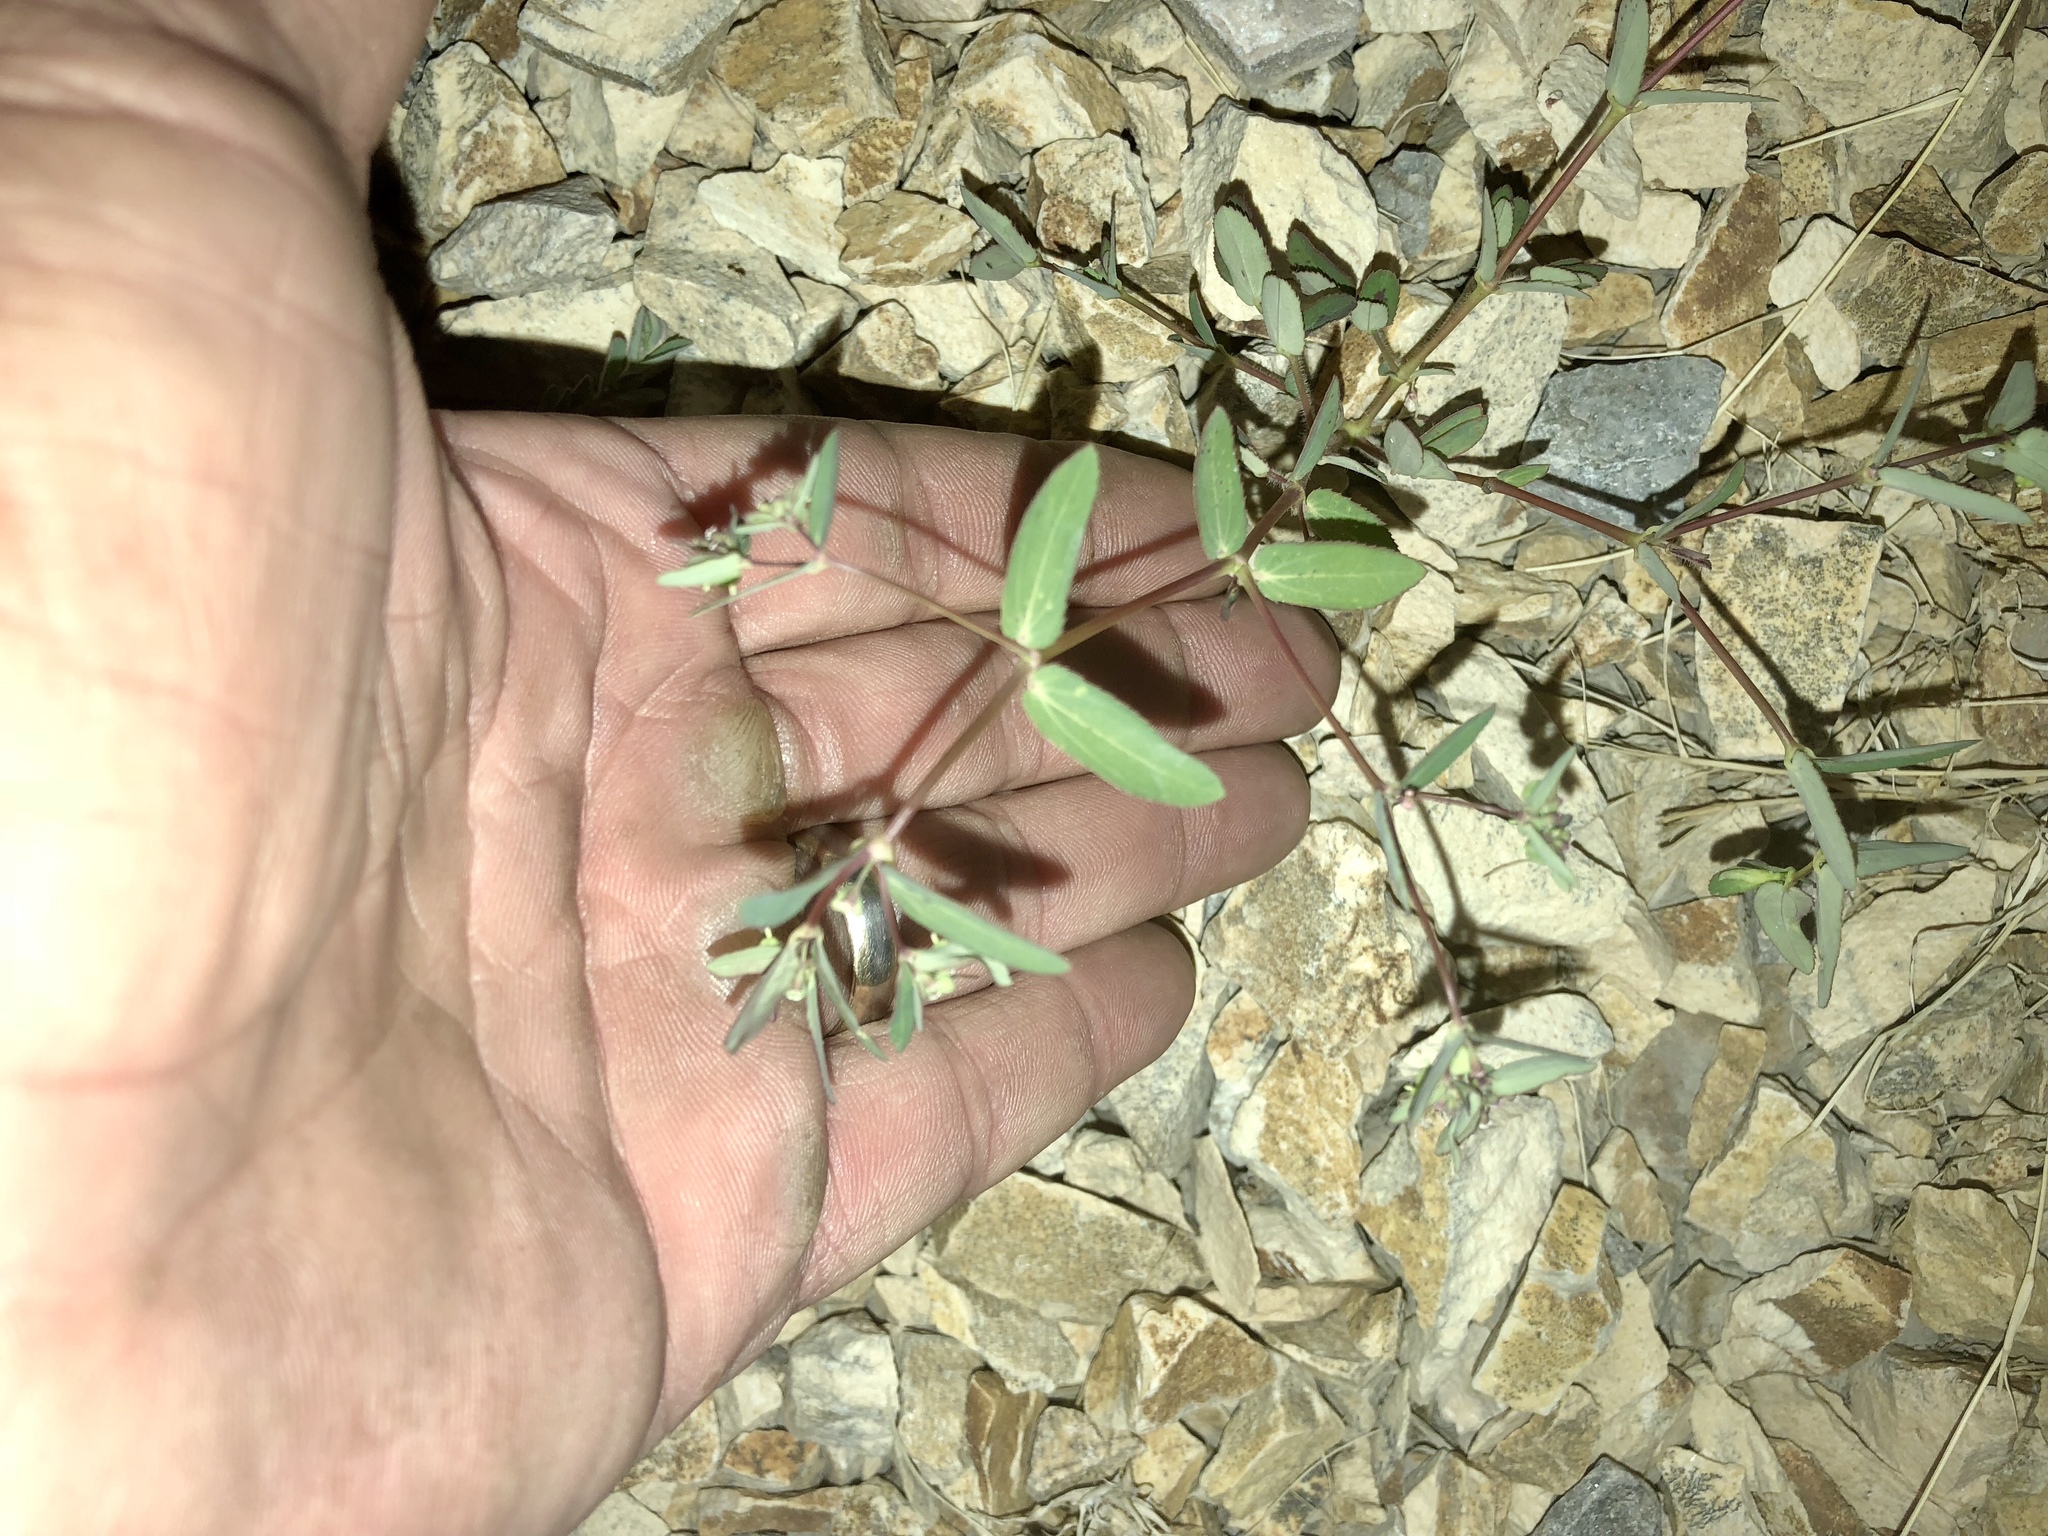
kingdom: Plantae
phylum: Tracheophyta
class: Magnoliopsida
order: Malpighiales
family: Euphorbiaceae
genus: Euphorbia
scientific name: Euphorbia hyssopifolia
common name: Hyssopleaf sandmat
